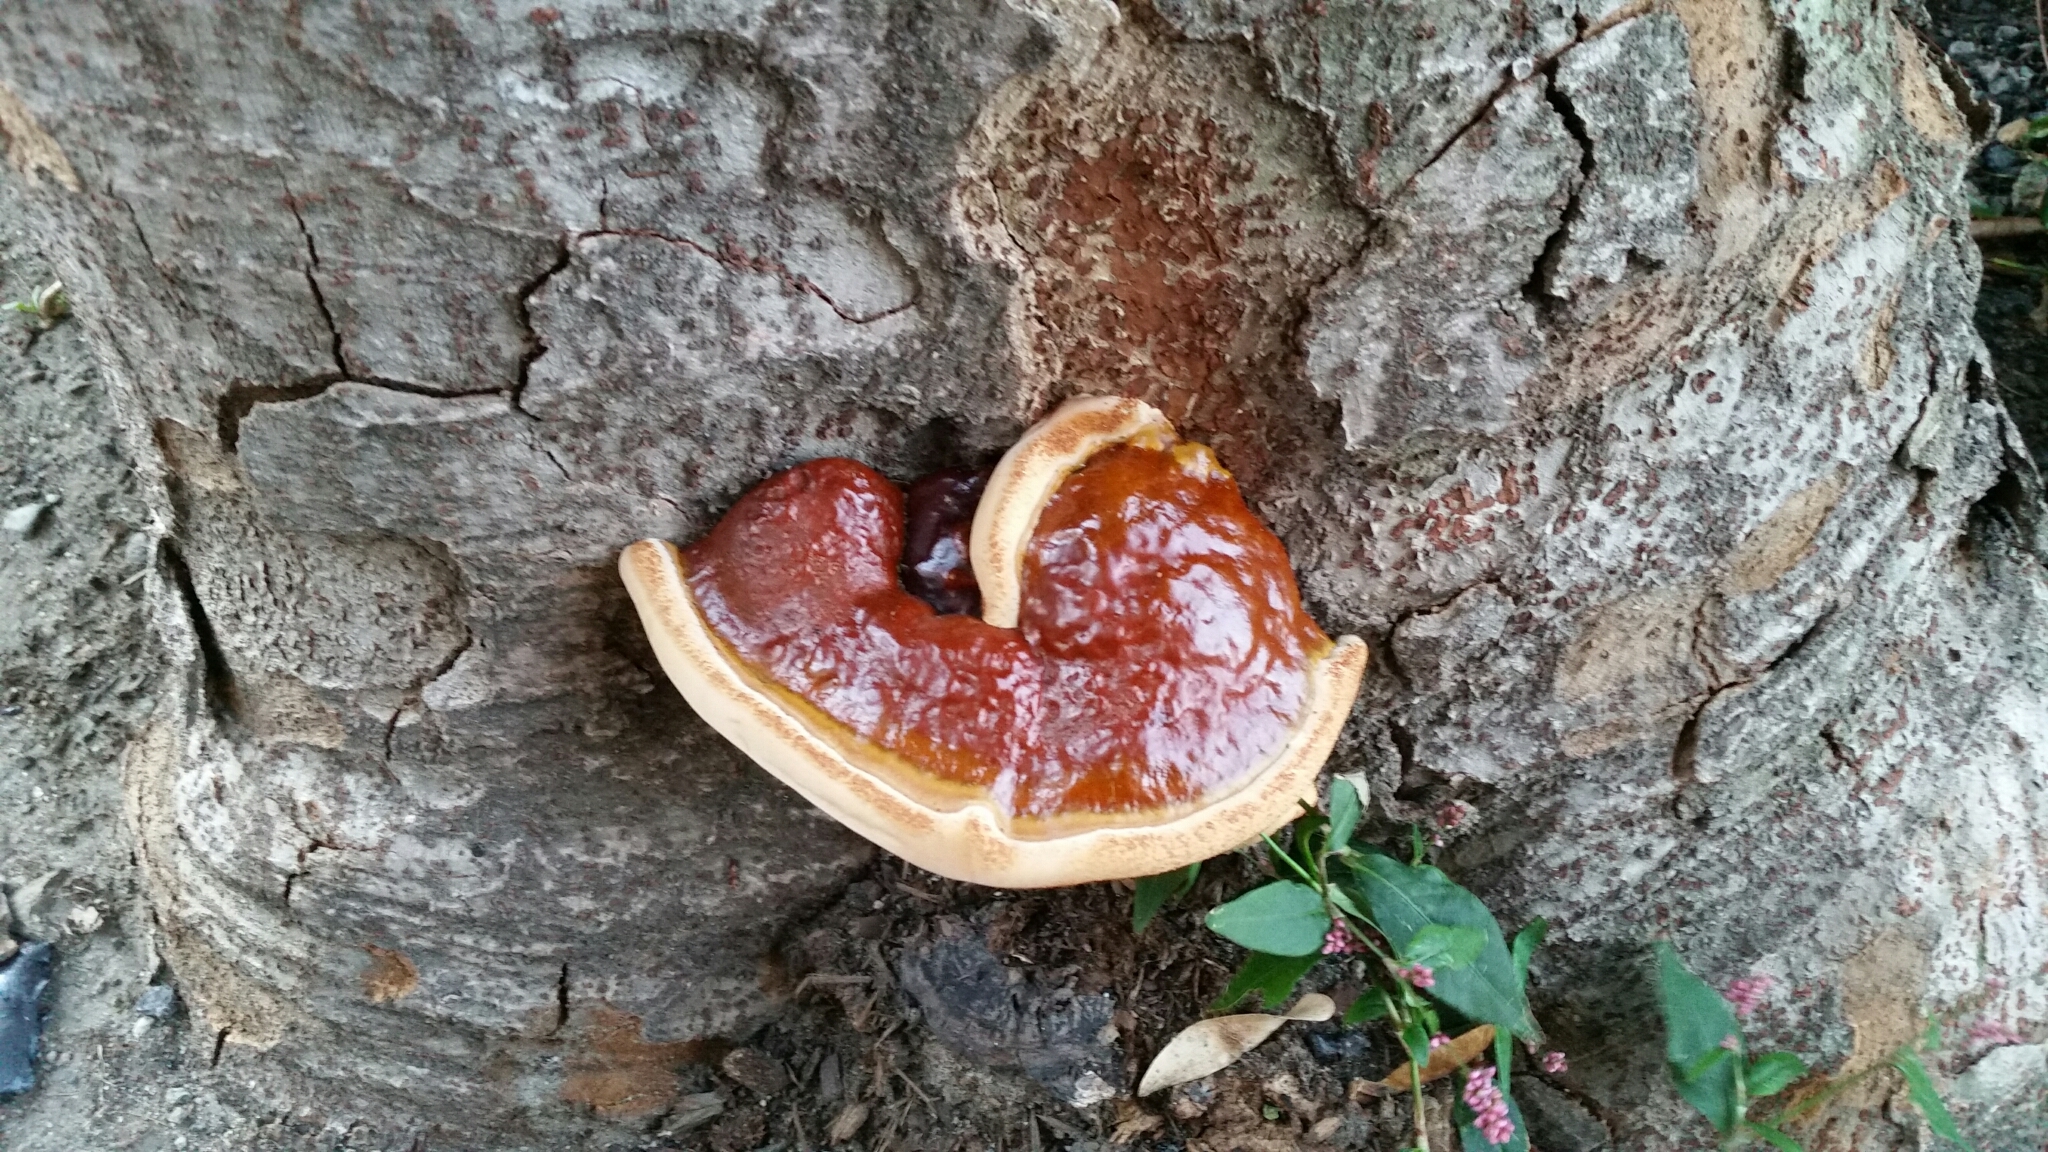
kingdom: Fungi
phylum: Basidiomycota
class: Agaricomycetes
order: Polyporales
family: Polyporaceae
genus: Ganoderma
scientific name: Ganoderma resinaceum
